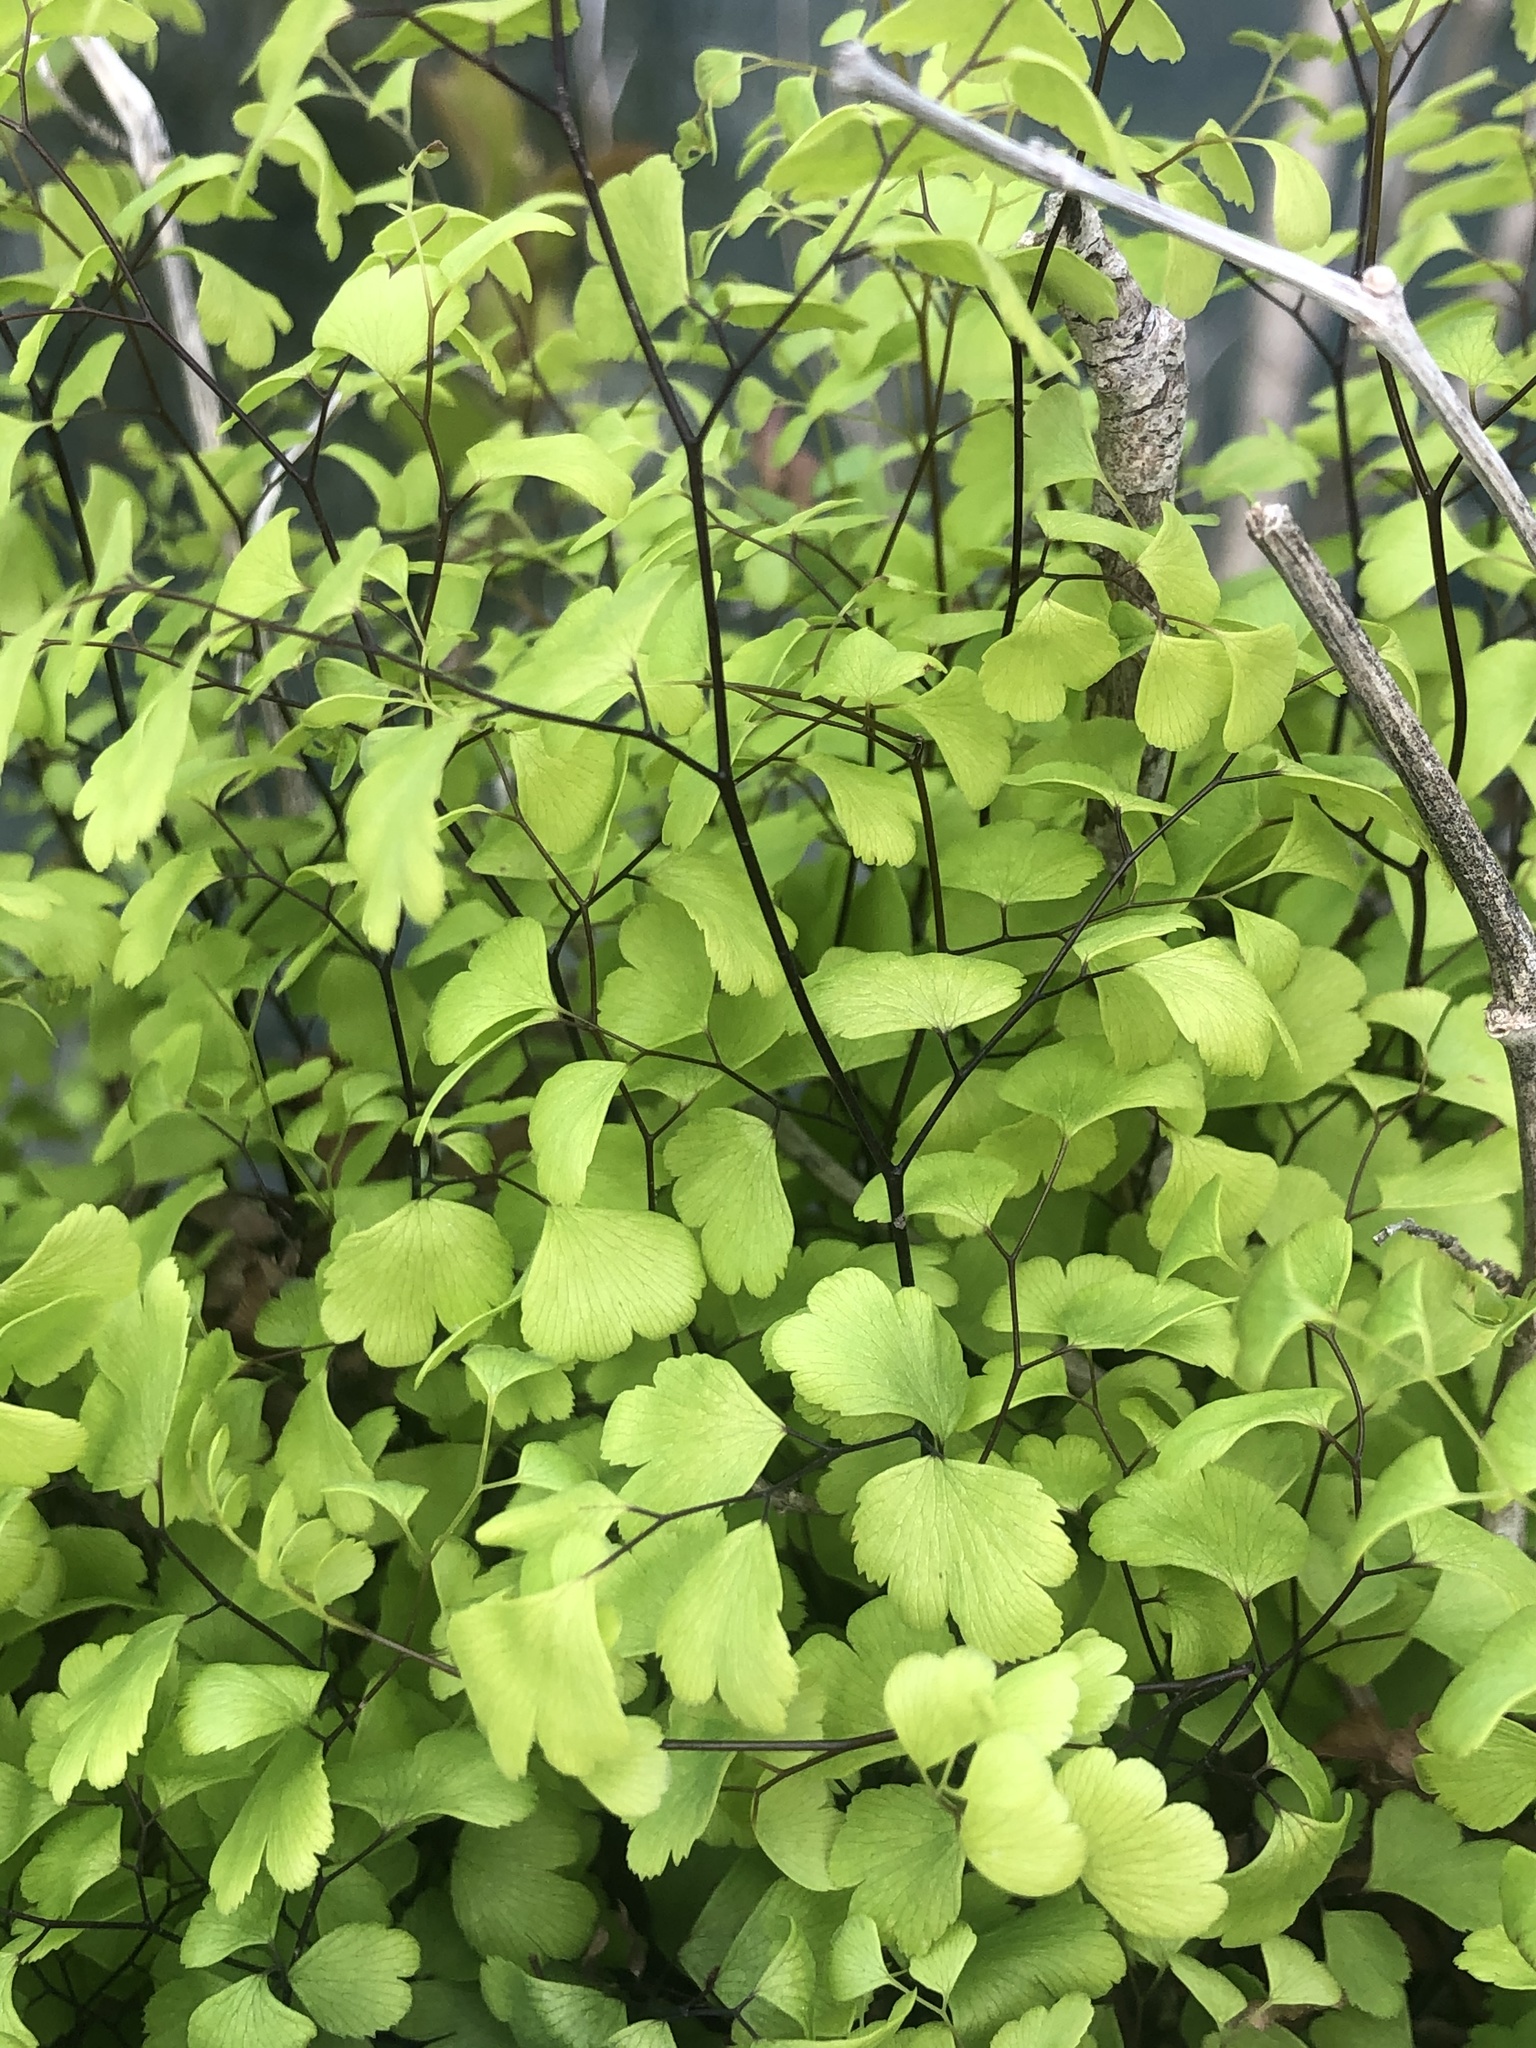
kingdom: Plantae
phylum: Tracheophyta
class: Polypodiopsida
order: Polypodiales
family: Pteridaceae
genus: Adiantum
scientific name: Adiantum capillus-veneris
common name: Maidenhair fern
